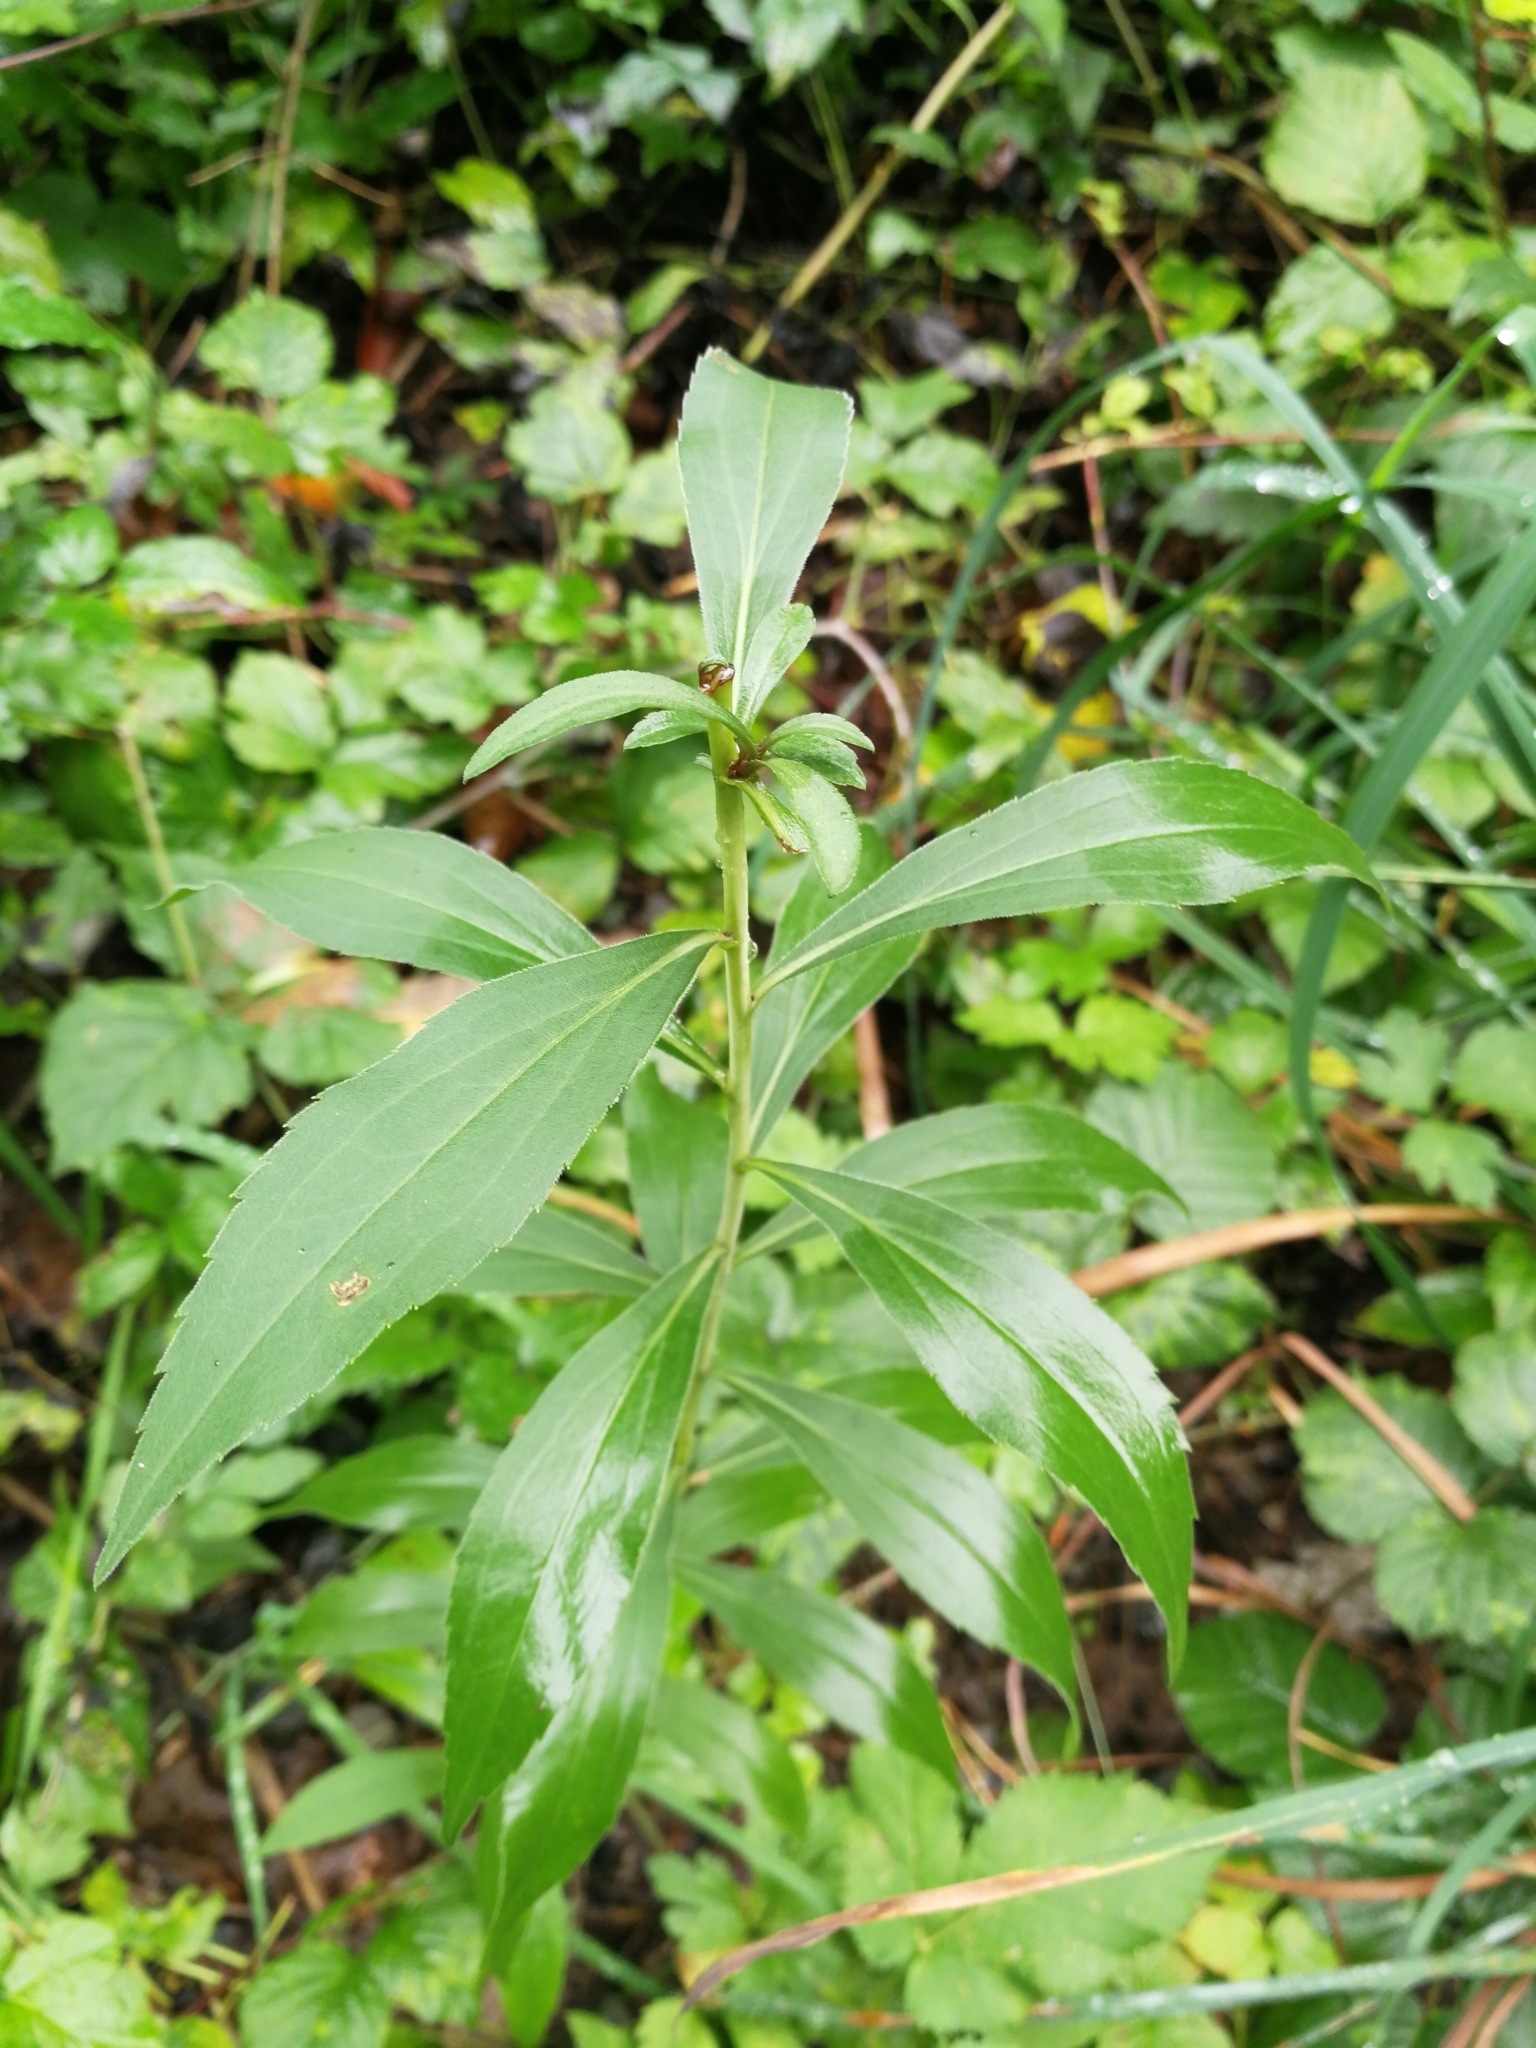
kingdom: Plantae
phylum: Tracheophyta
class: Liliopsida
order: Liliales
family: Liliaceae
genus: Lilium
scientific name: Lilium martagon
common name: Martagon lily
